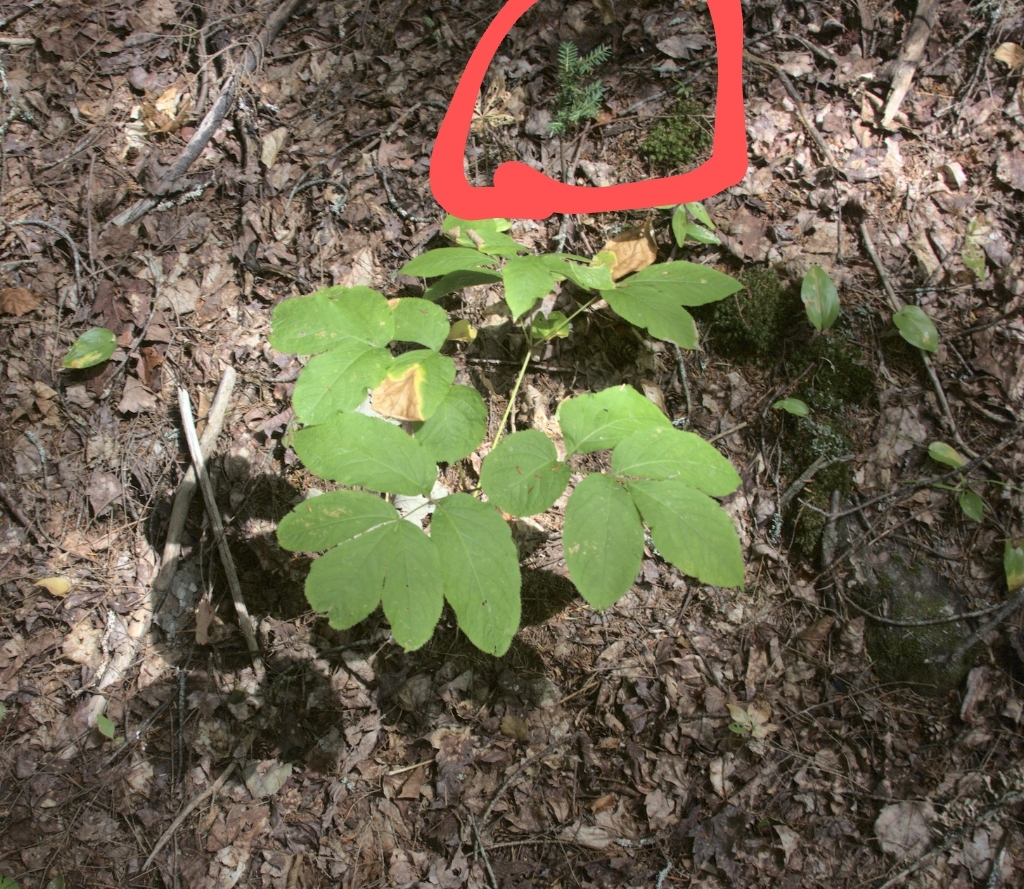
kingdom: Plantae
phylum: Tracheophyta
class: Pinopsida
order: Pinales
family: Pinaceae
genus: Tsuga
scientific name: Tsuga canadensis
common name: Eastern hemlock
